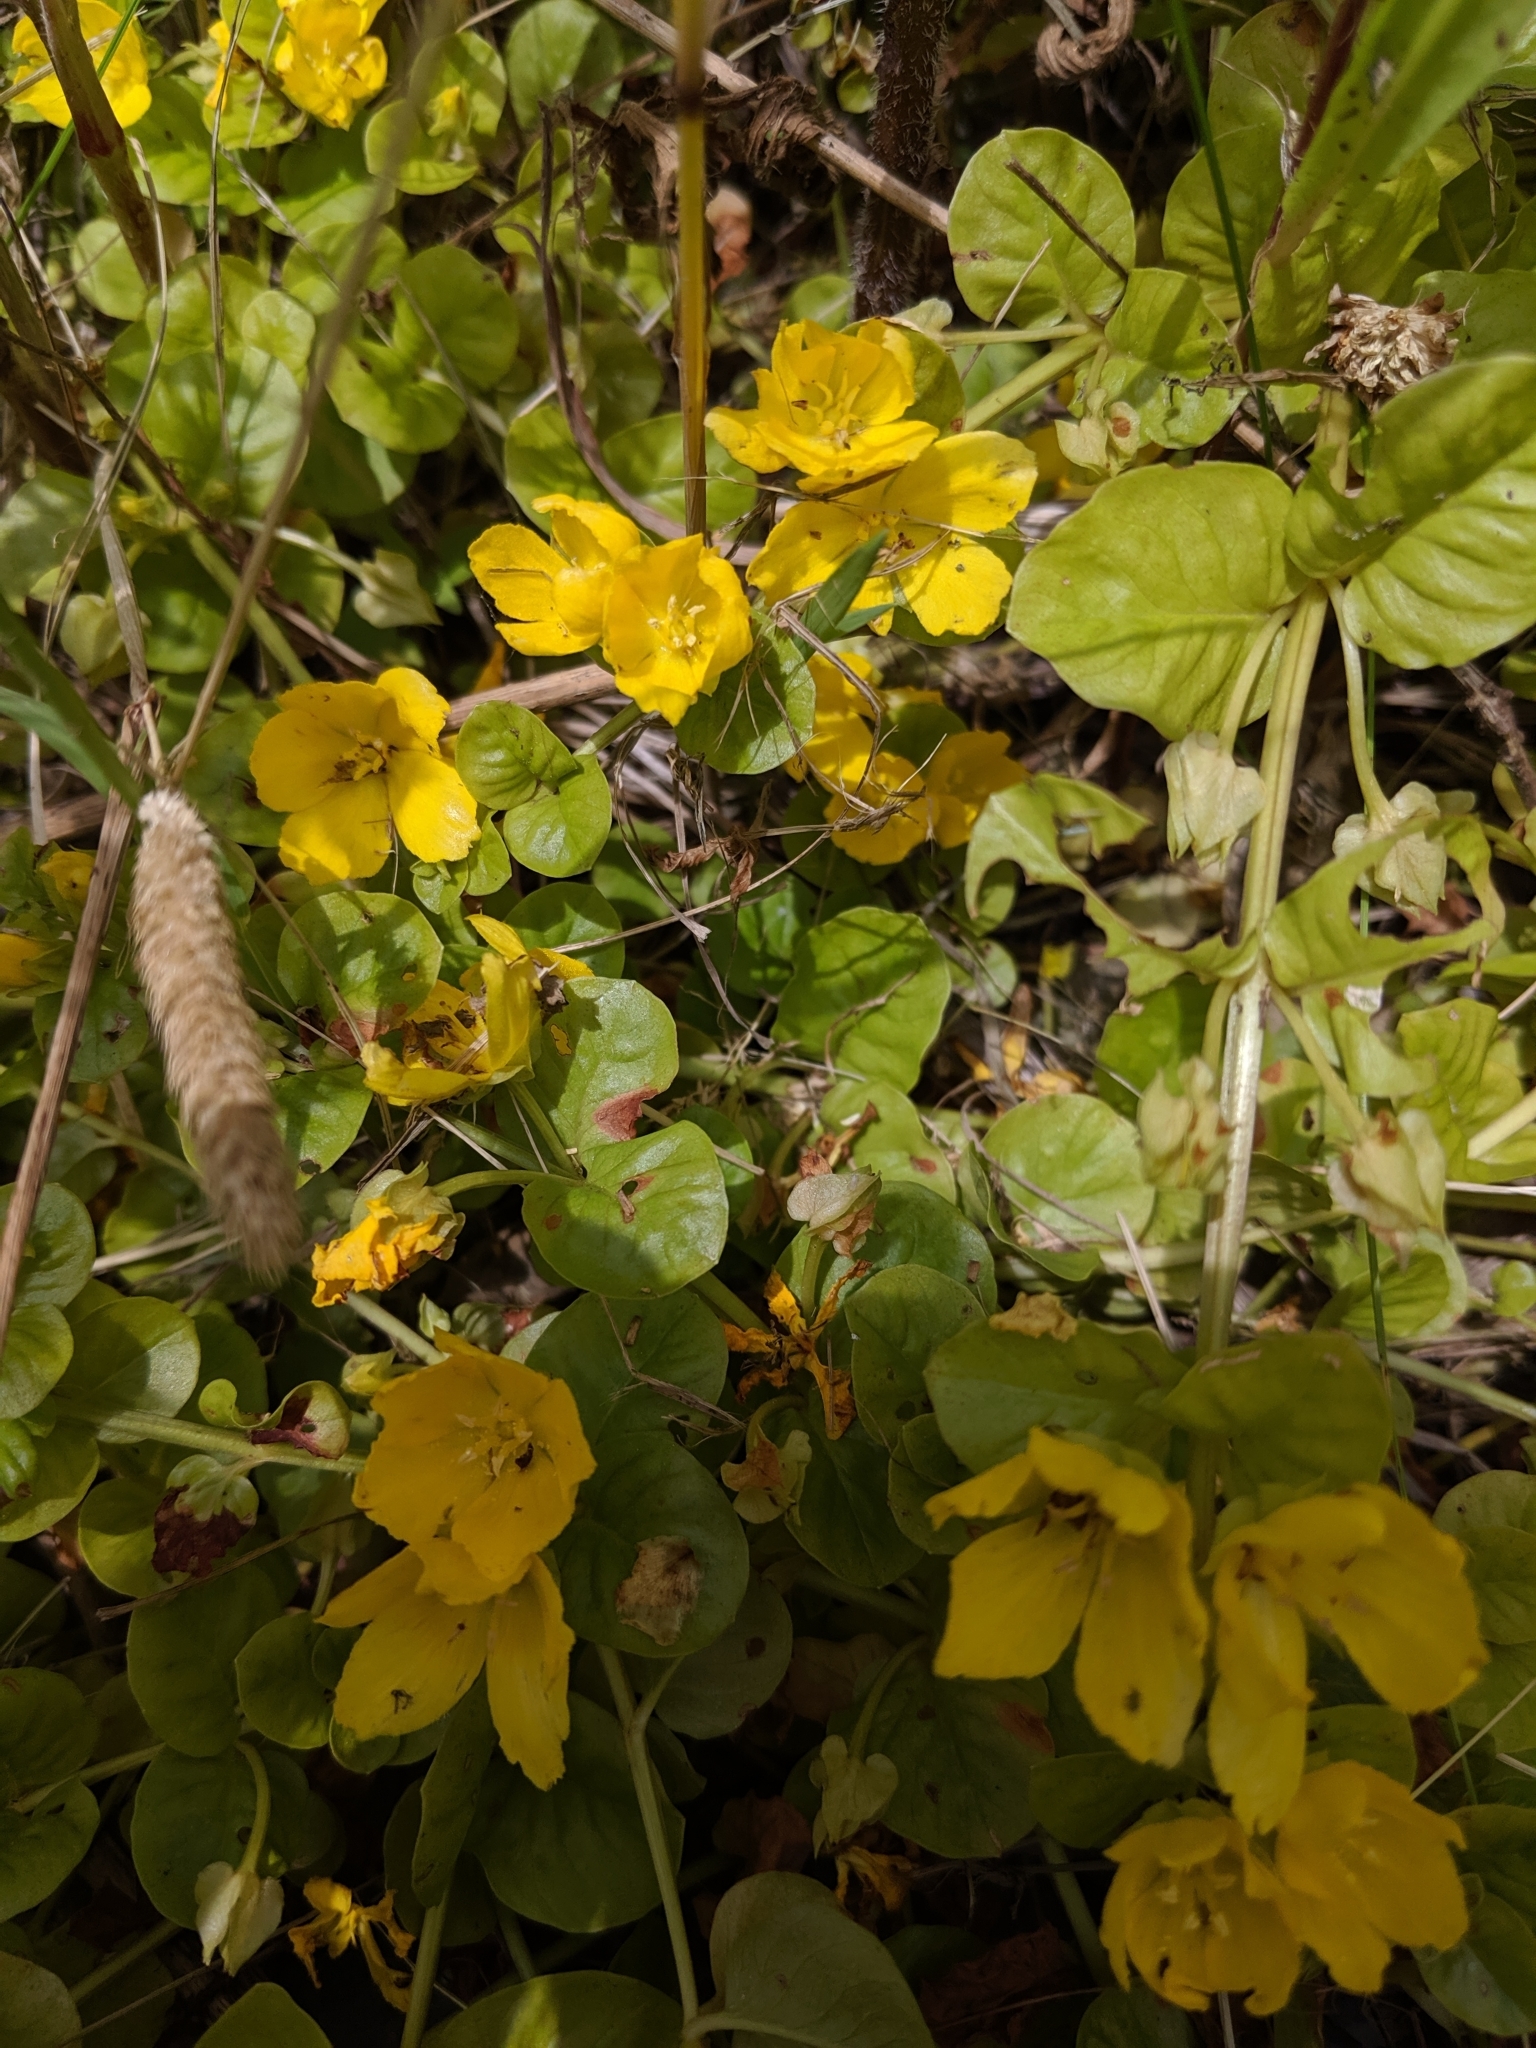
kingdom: Plantae
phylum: Tracheophyta
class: Magnoliopsida
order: Ericales
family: Primulaceae
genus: Lysimachia
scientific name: Lysimachia nummularia
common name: Moneywort
